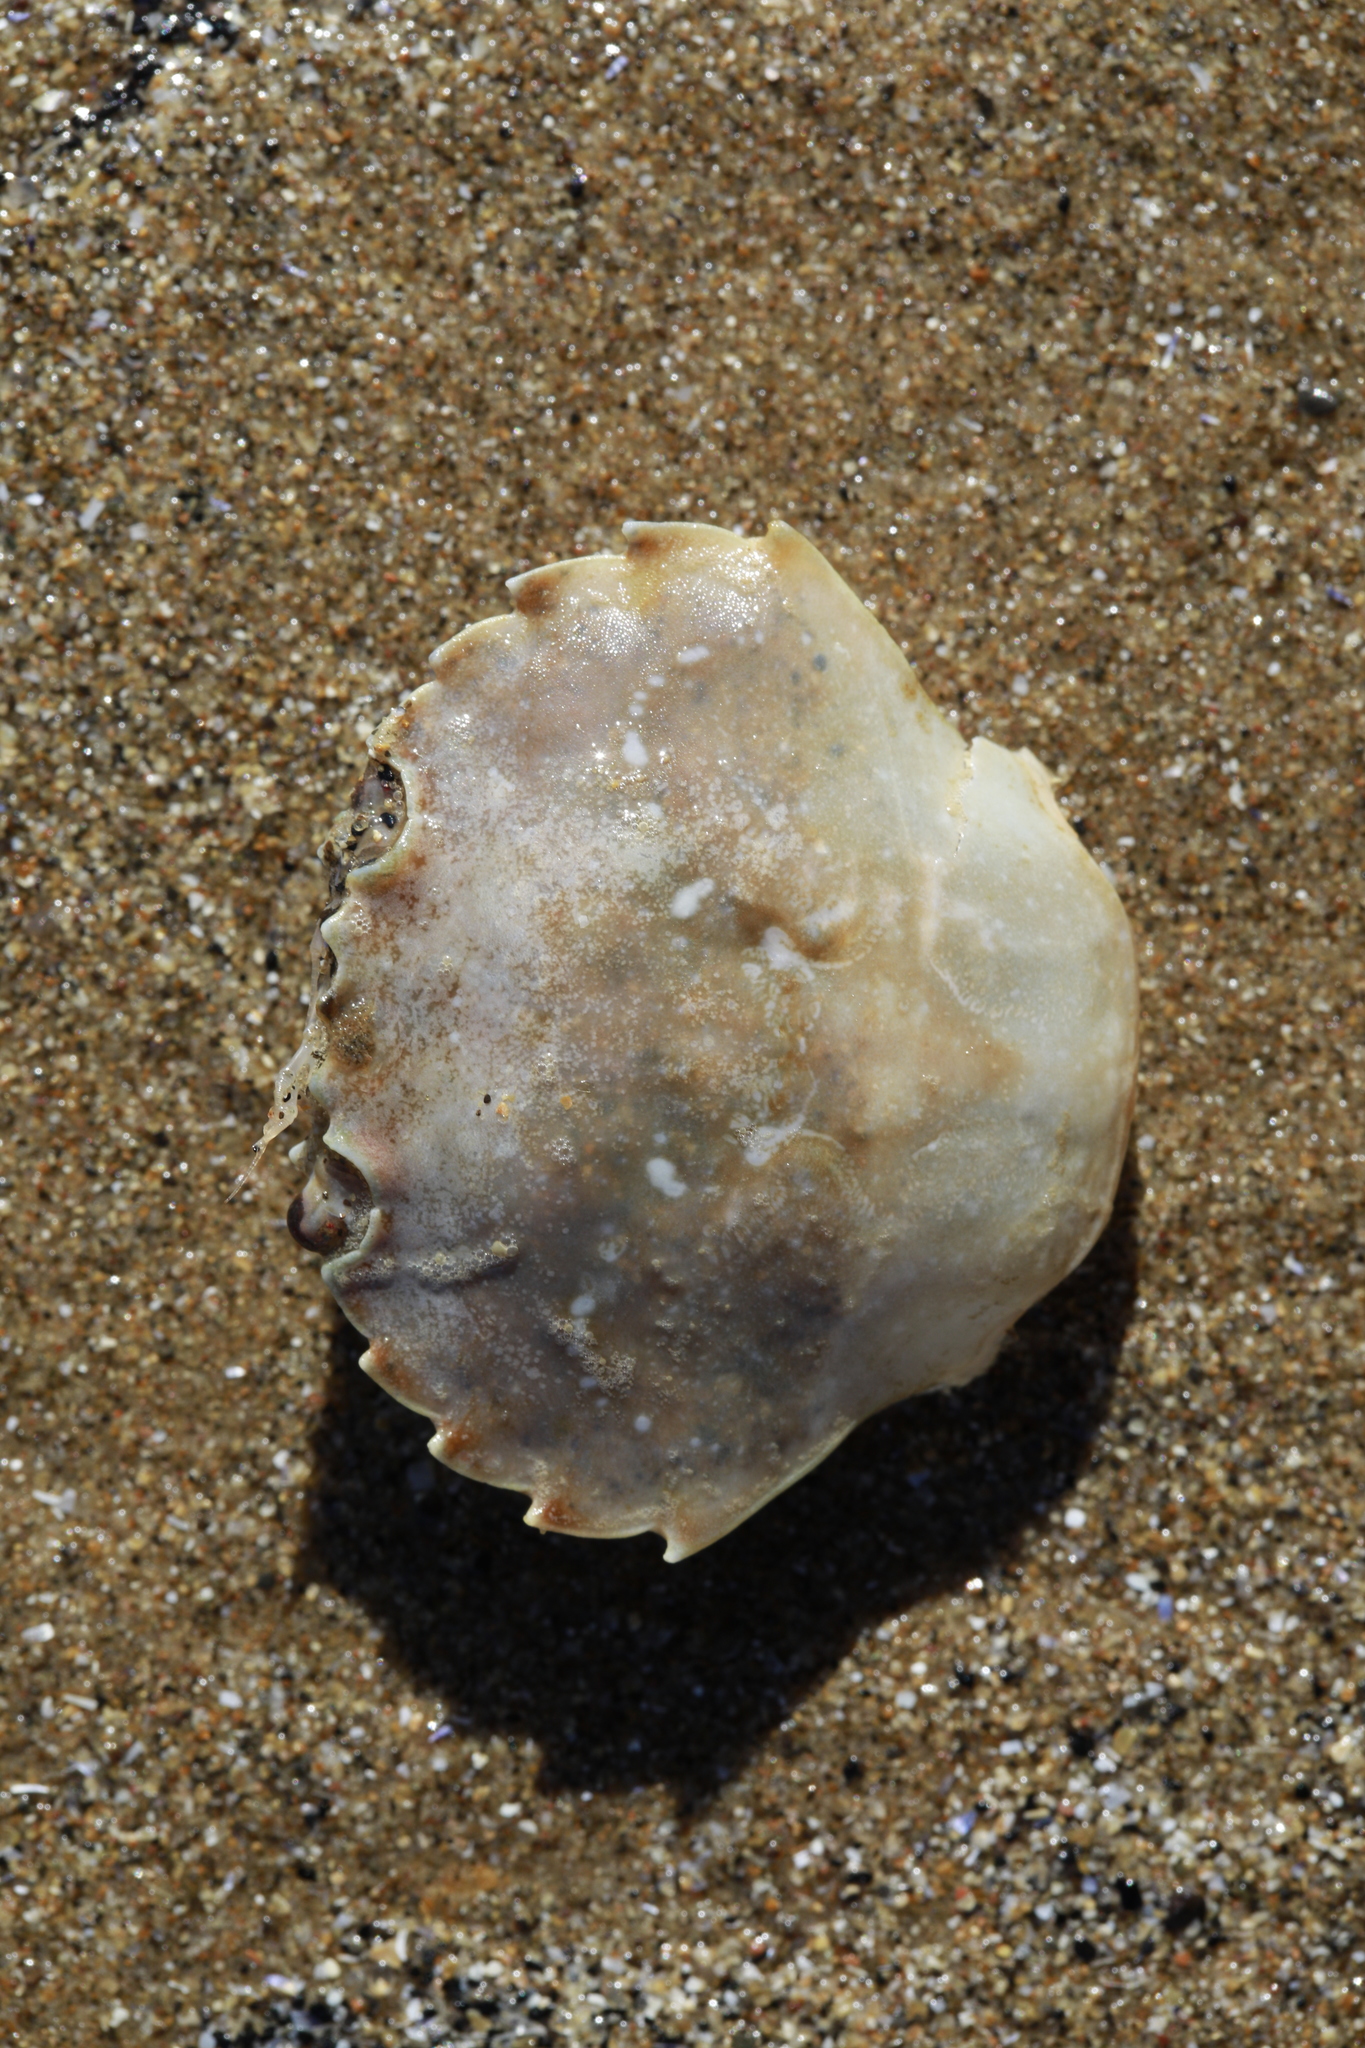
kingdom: Animalia
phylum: Arthropoda
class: Malacostraca
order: Decapoda
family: Polybiidae
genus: Liocarcinus
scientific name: Liocarcinus vernalis
